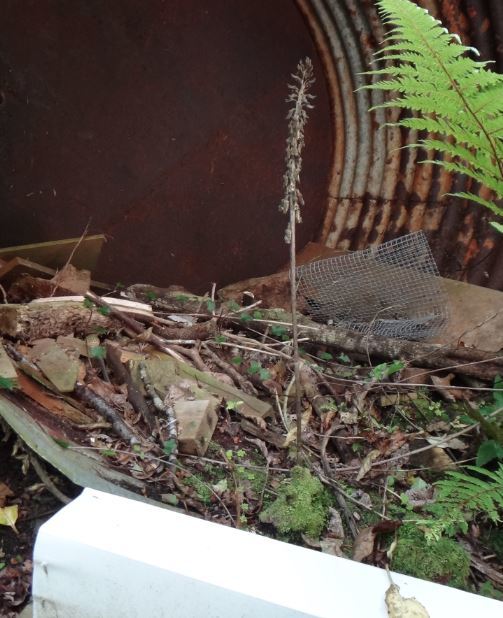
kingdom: Plantae
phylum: Tracheophyta
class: Liliopsida
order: Asparagales
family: Orchidaceae
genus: Gastrodia
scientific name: Gastrodia molloyi
